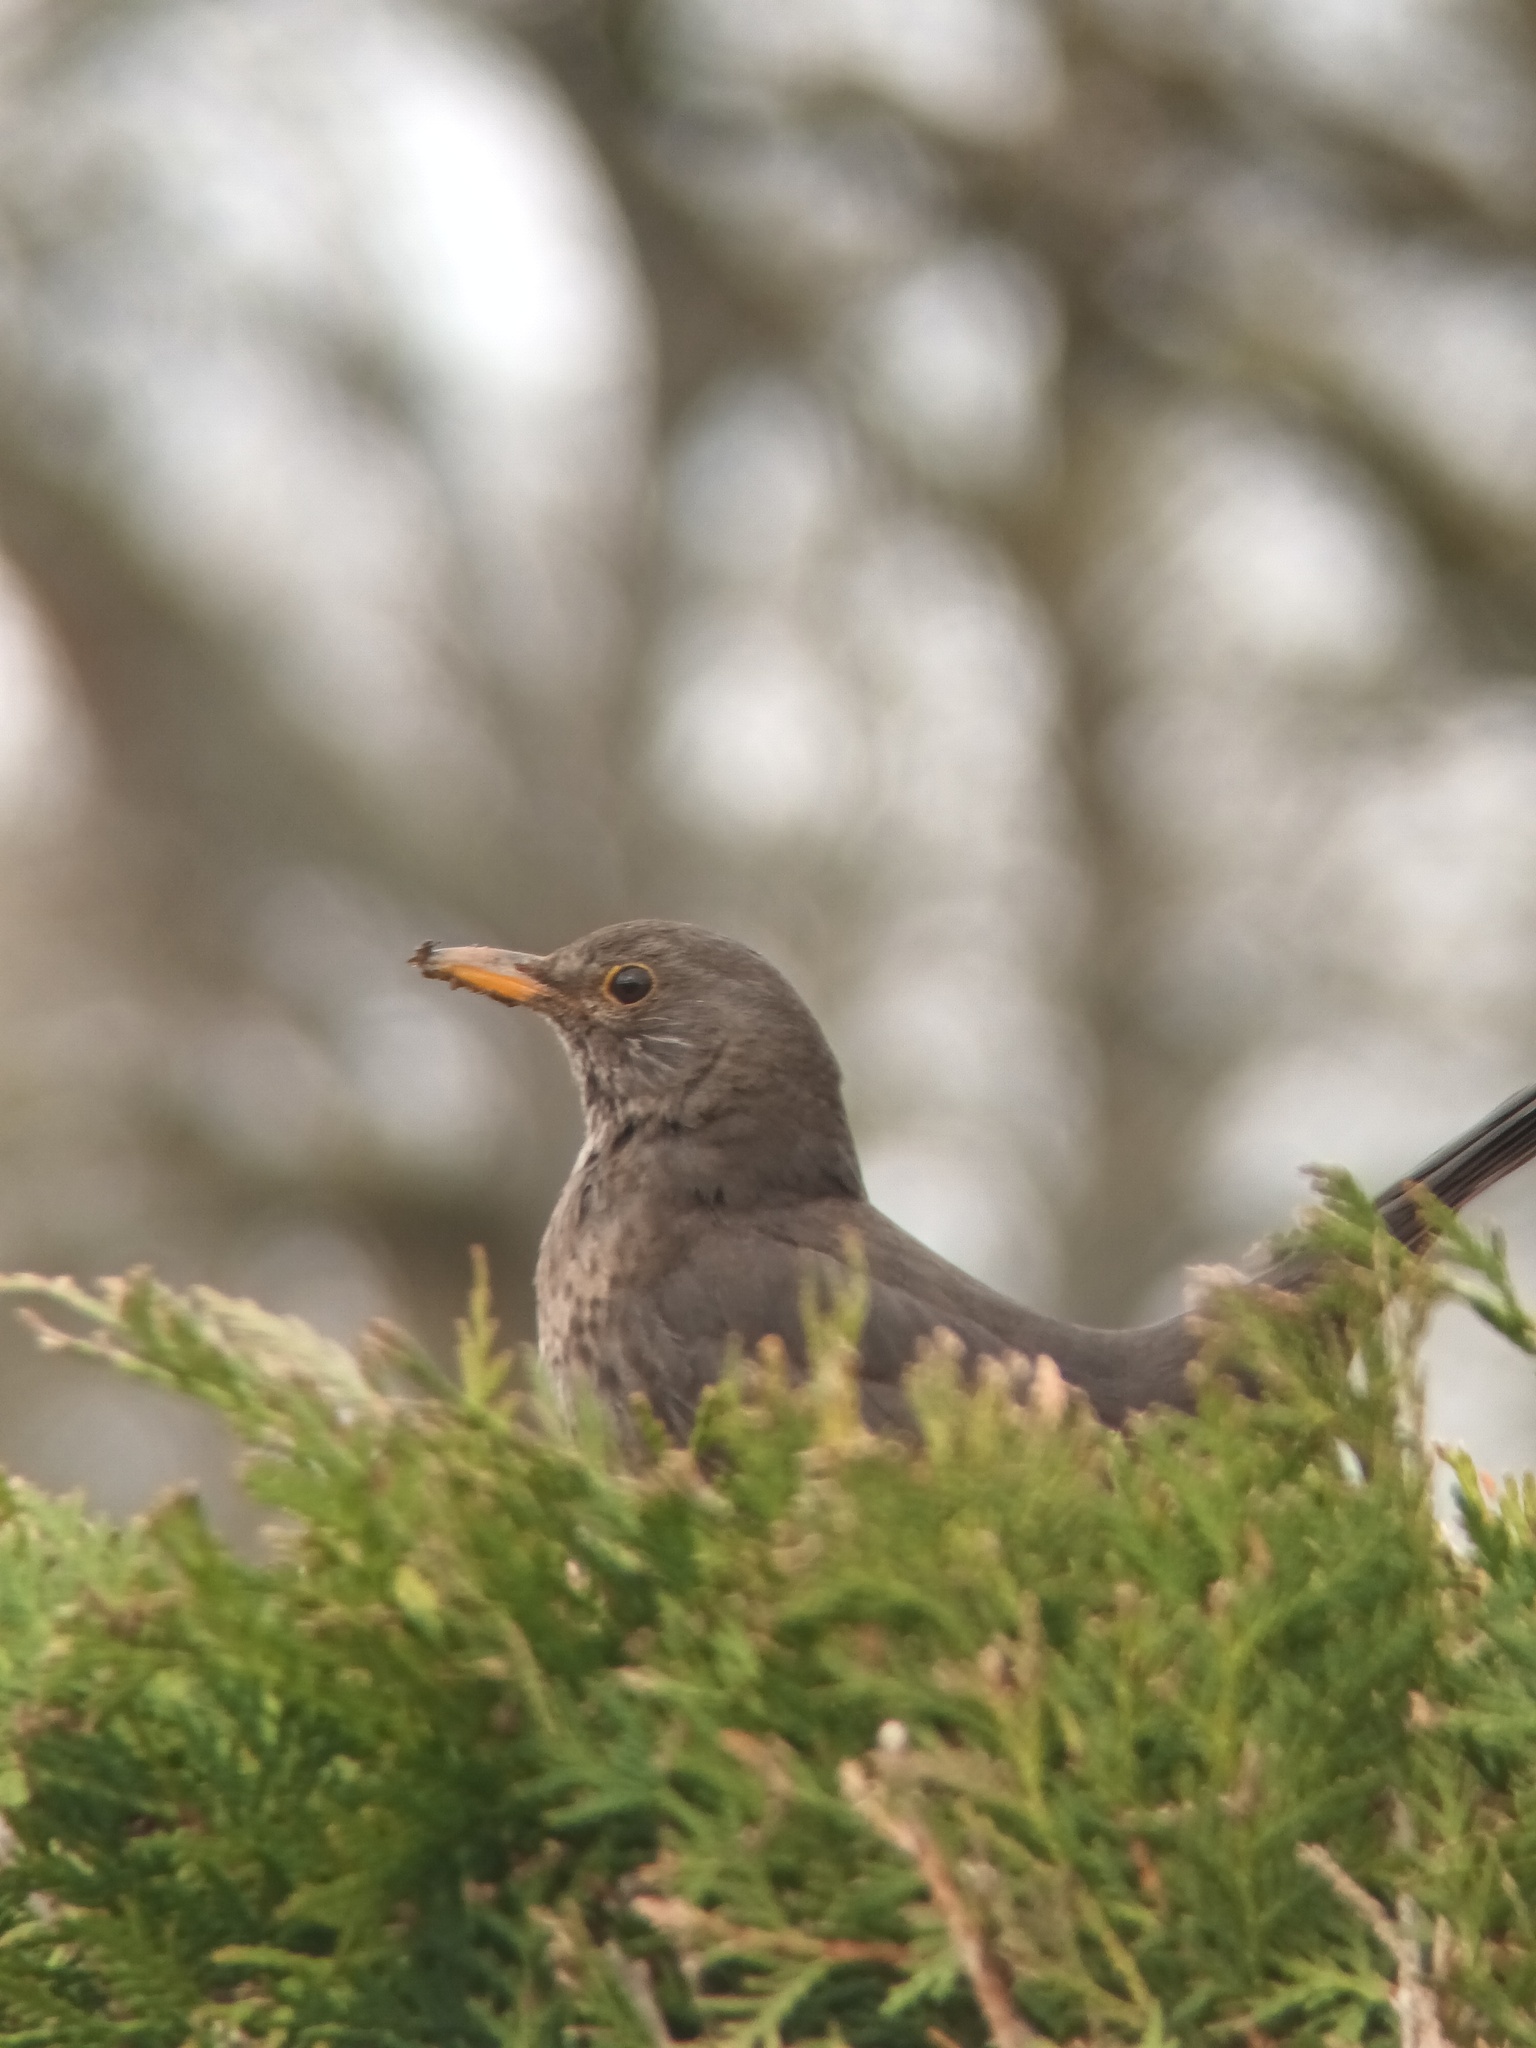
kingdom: Animalia
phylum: Chordata
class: Aves
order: Passeriformes
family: Turdidae
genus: Turdus
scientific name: Turdus merula
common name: Common blackbird
